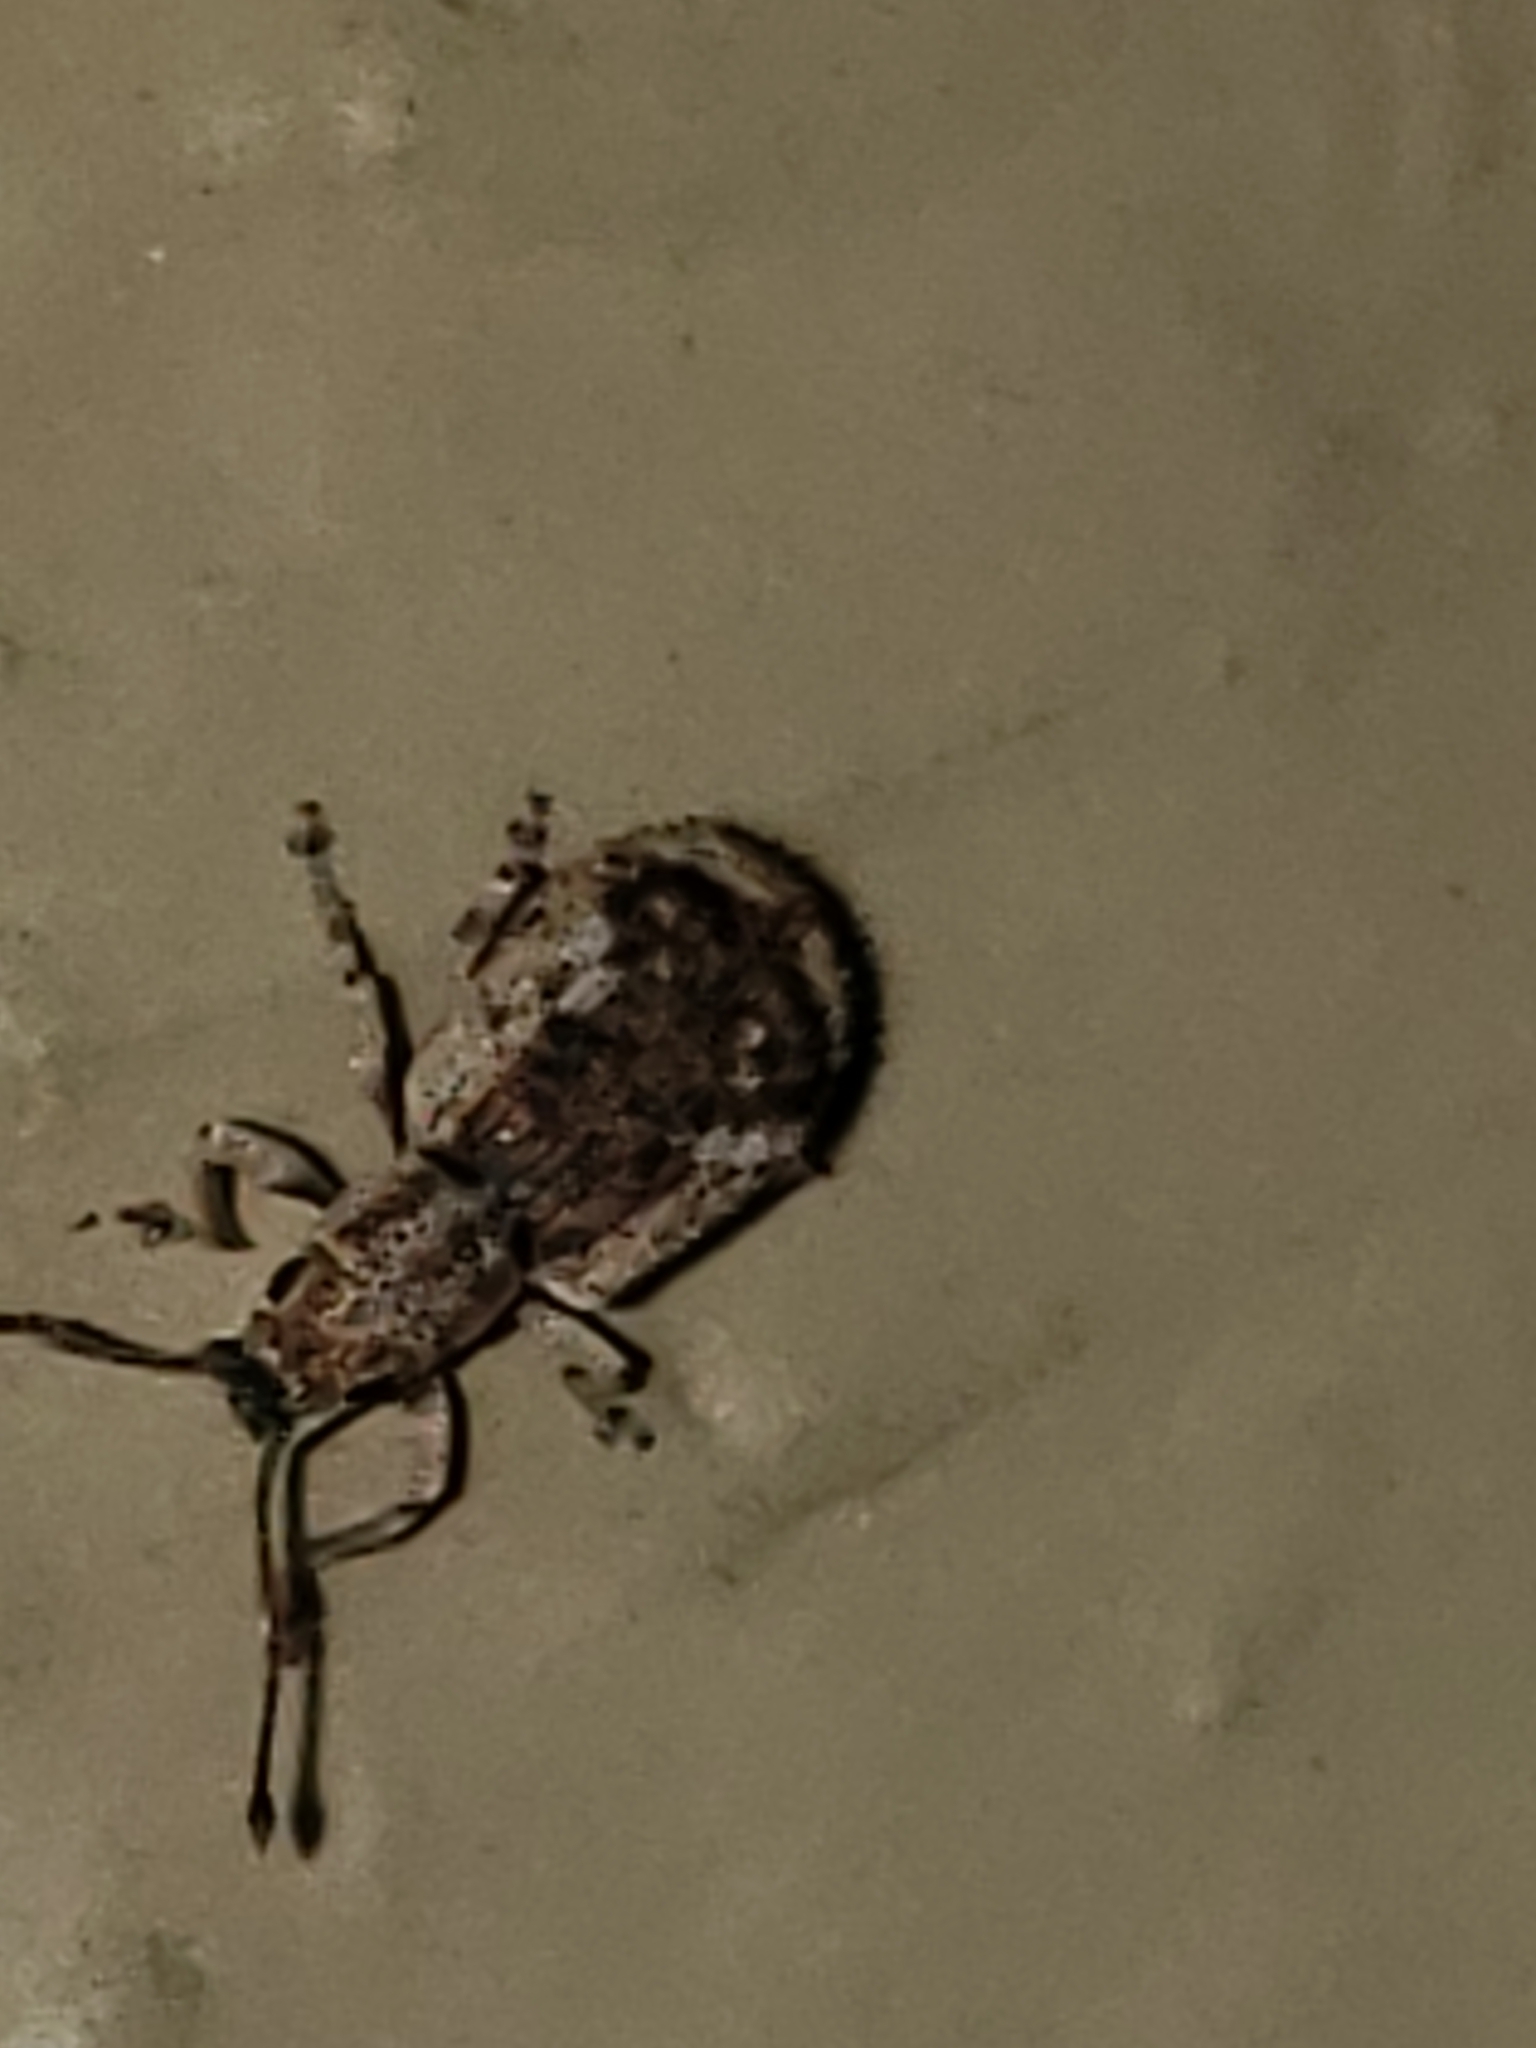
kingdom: Animalia
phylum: Arthropoda
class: Insecta
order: Coleoptera
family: Curculionidae
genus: Pseudoedophrys
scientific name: Pseudoedophrys hilleri
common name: Weevil
